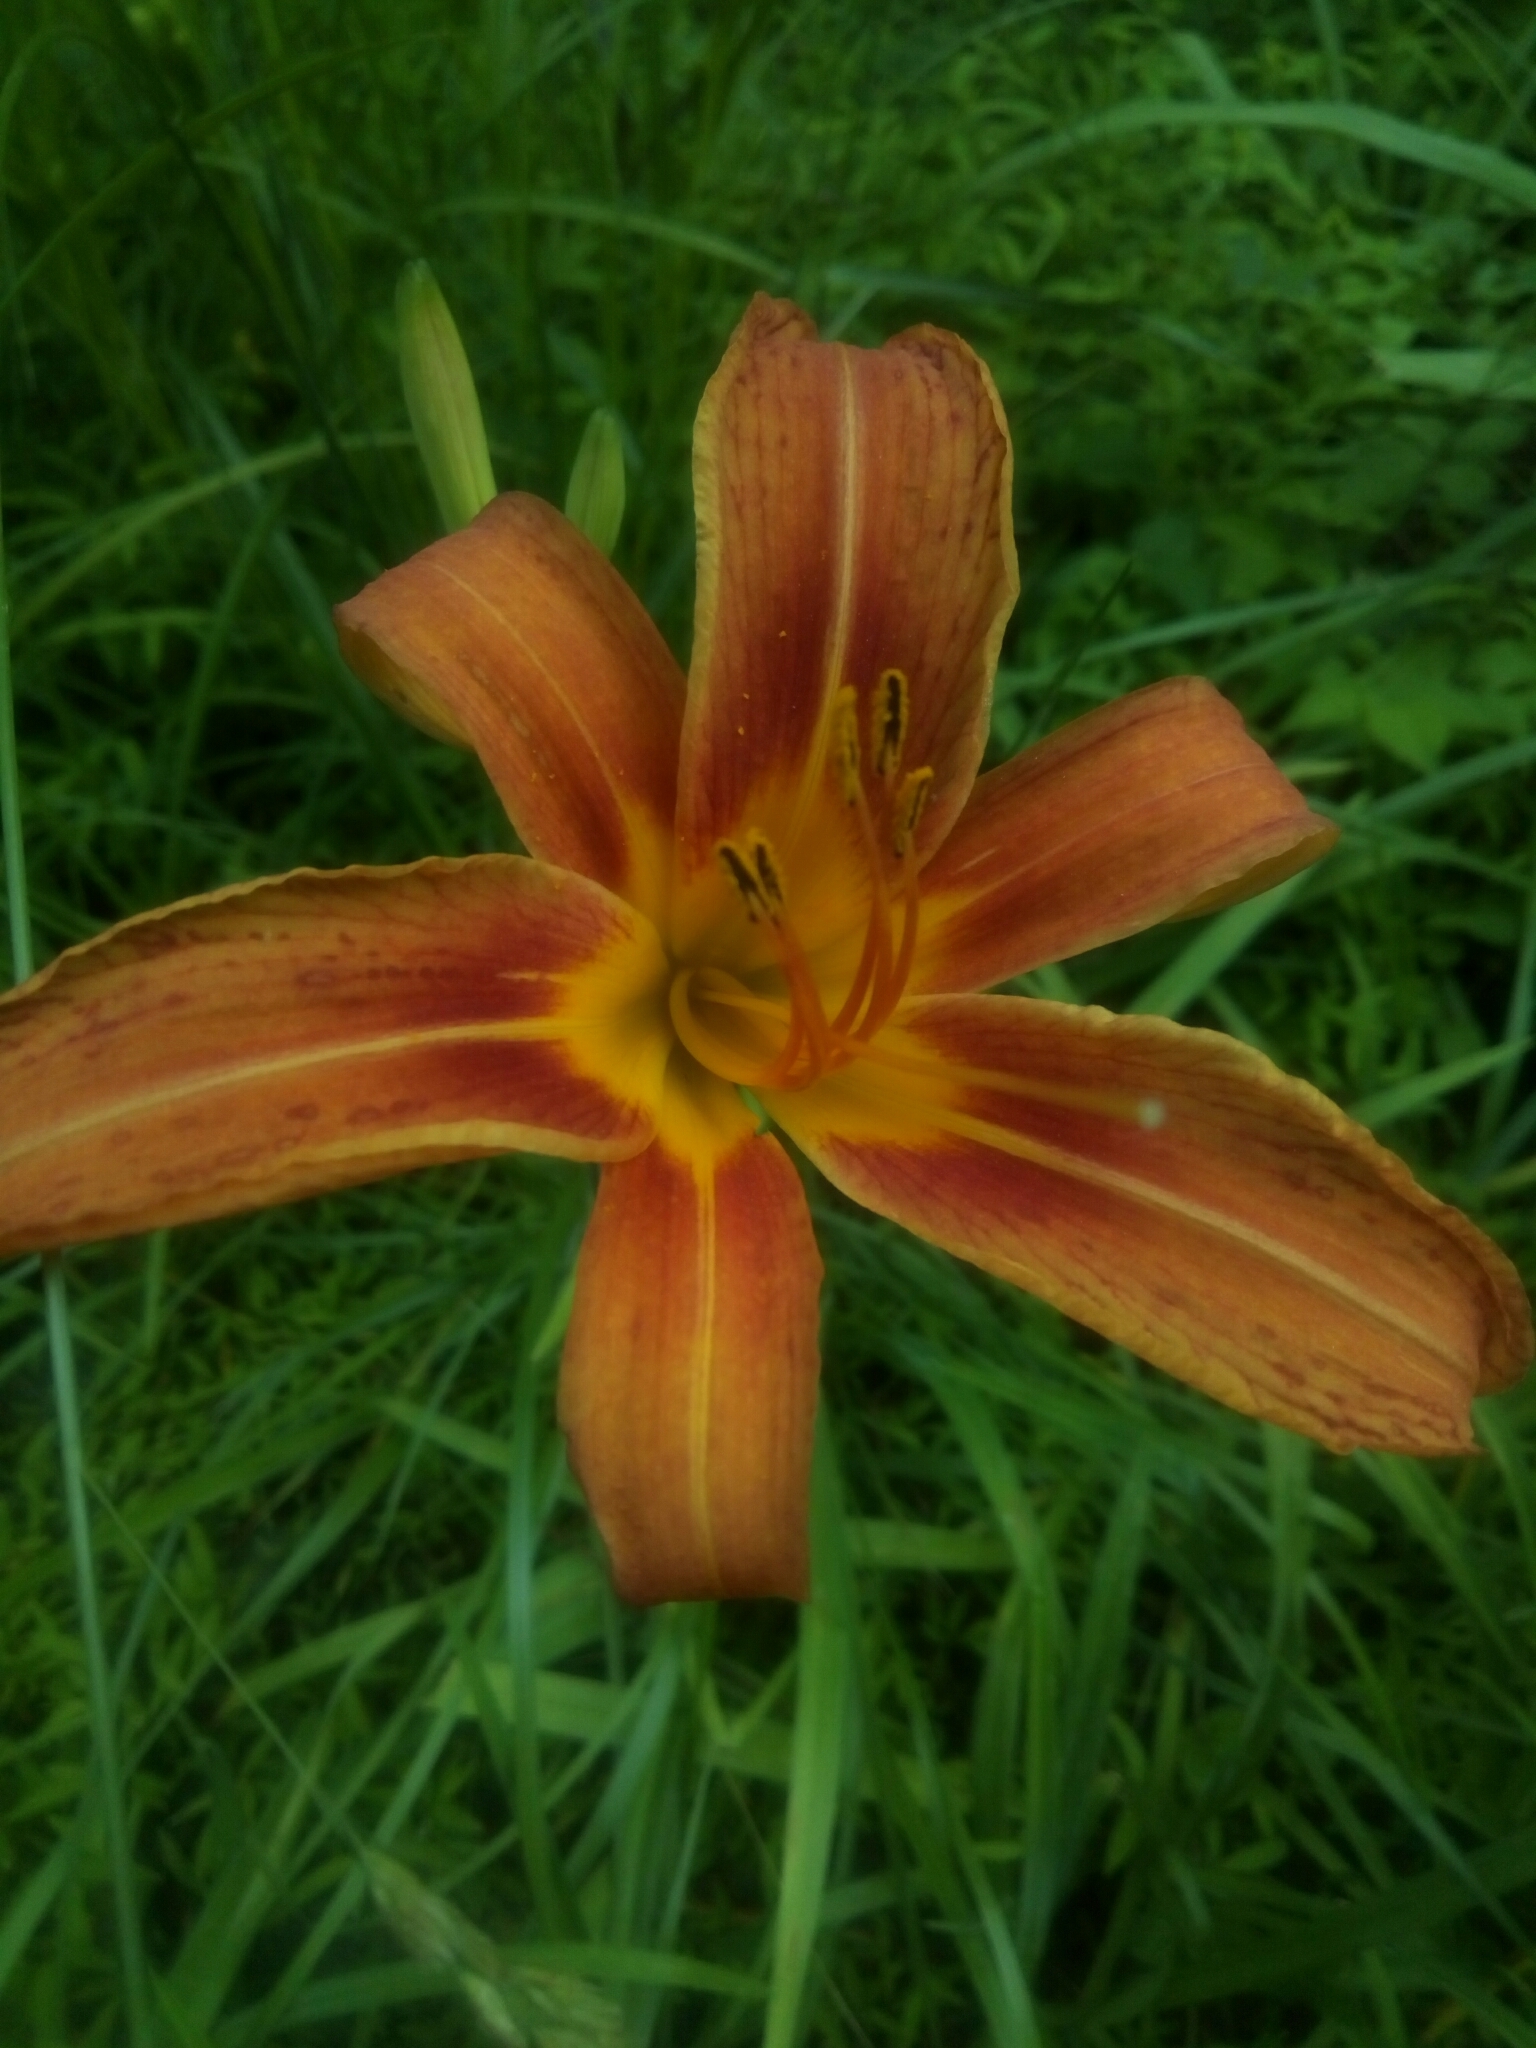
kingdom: Plantae
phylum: Tracheophyta
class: Liliopsida
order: Asparagales
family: Asphodelaceae
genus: Hemerocallis
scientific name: Hemerocallis fulva
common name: Orange day-lily
